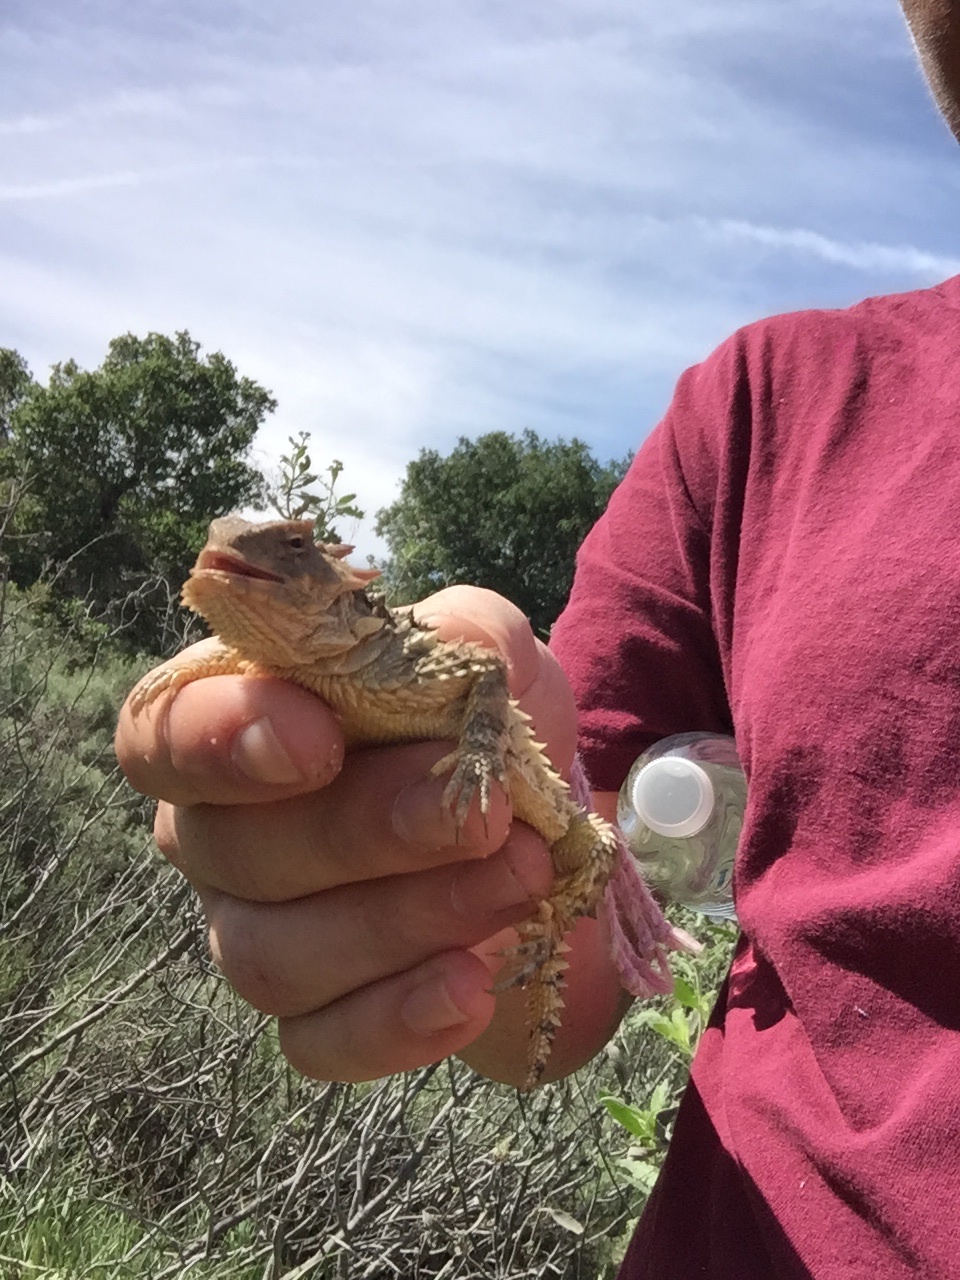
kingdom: Animalia
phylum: Chordata
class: Squamata
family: Phrynosomatidae
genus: Phrynosoma
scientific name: Phrynosoma blainvillii
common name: San diego horned lizard
